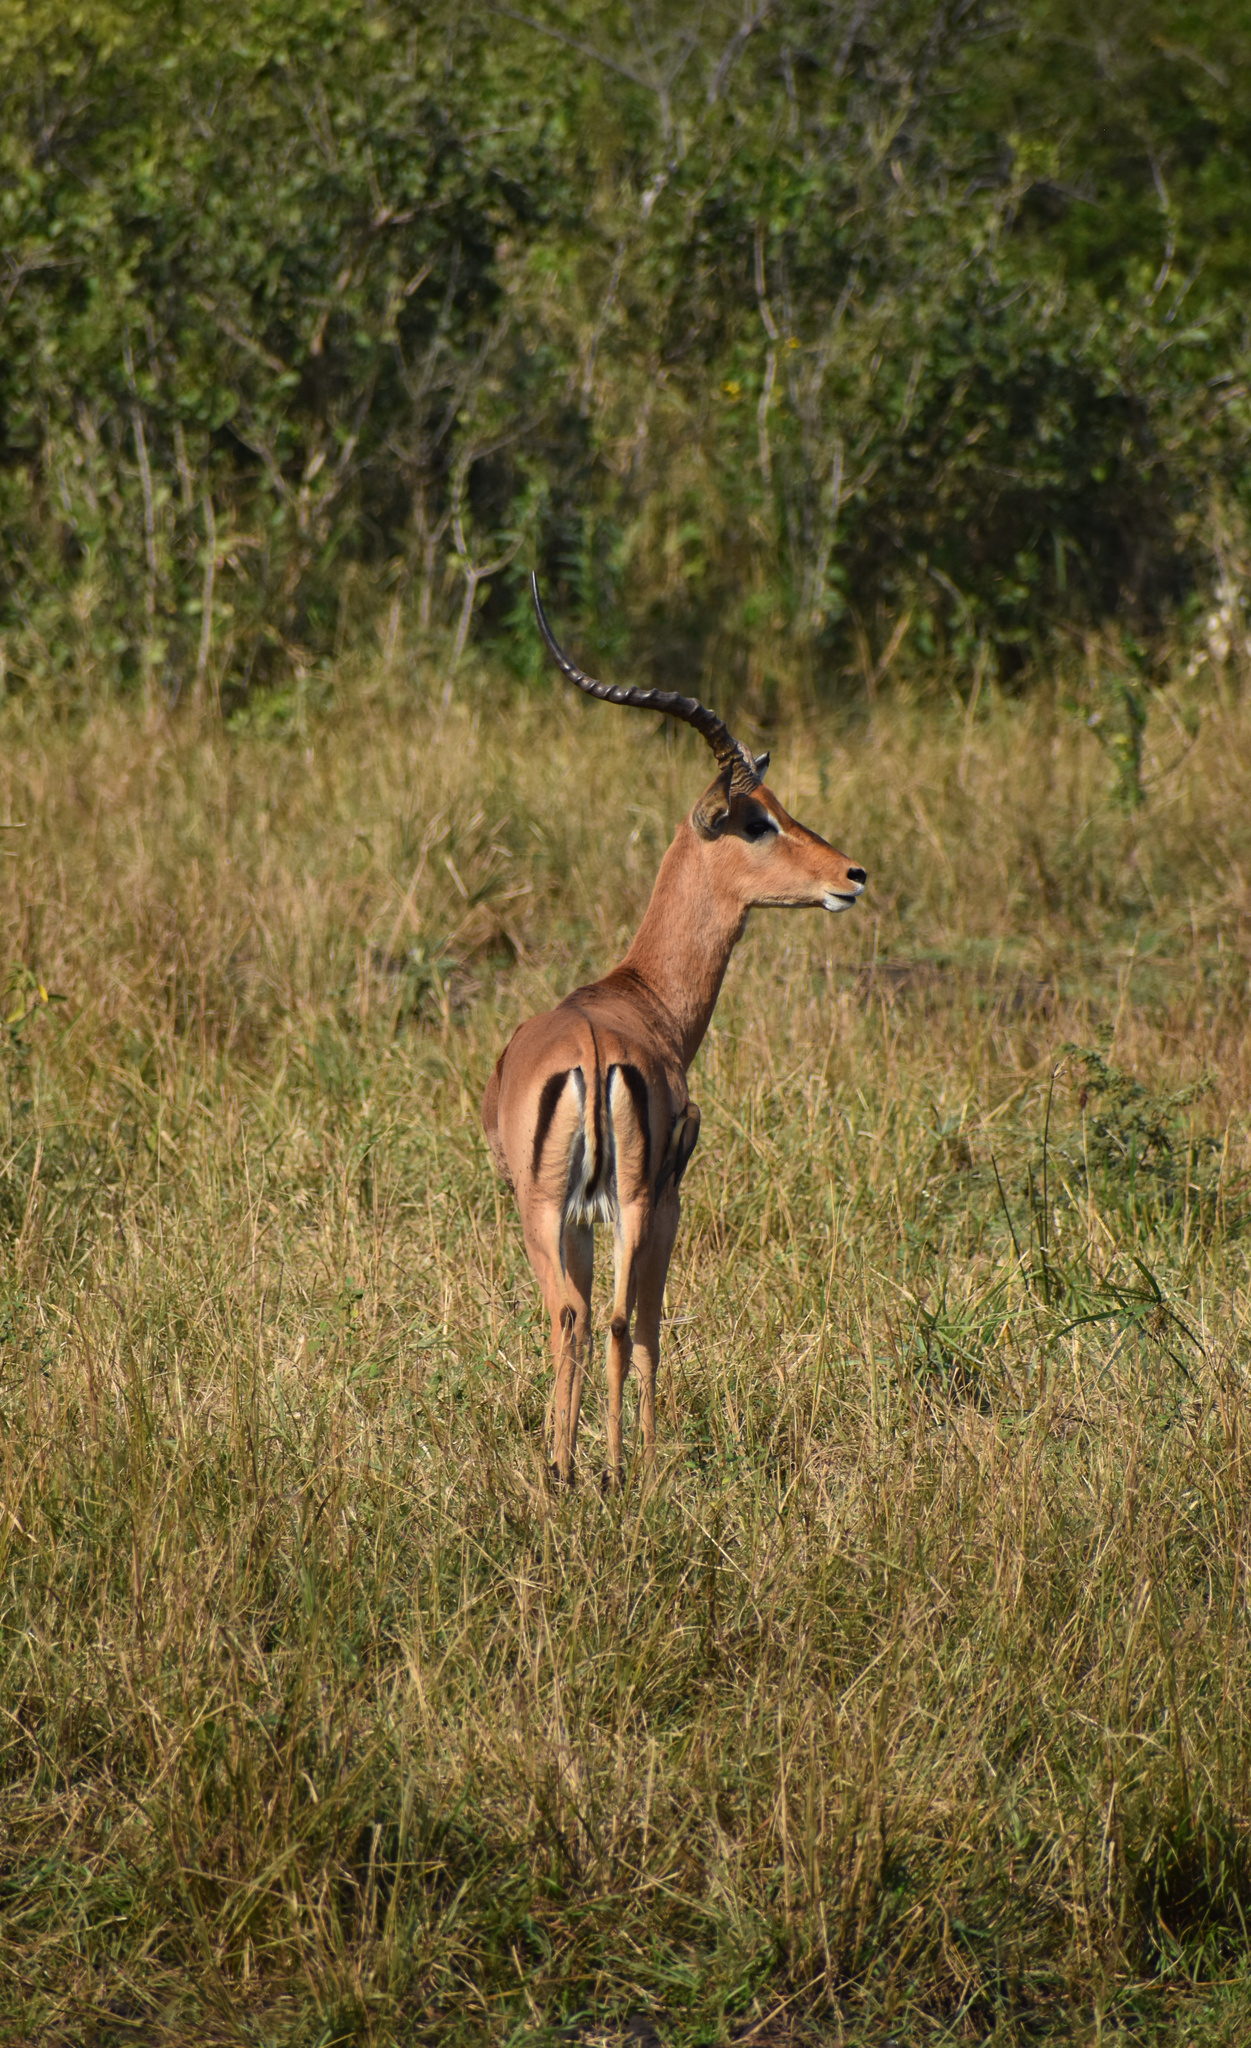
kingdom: Animalia
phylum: Chordata
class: Mammalia
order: Artiodactyla
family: Bovidae
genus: Aepyceros
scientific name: Aepyceros melampus
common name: Impala
